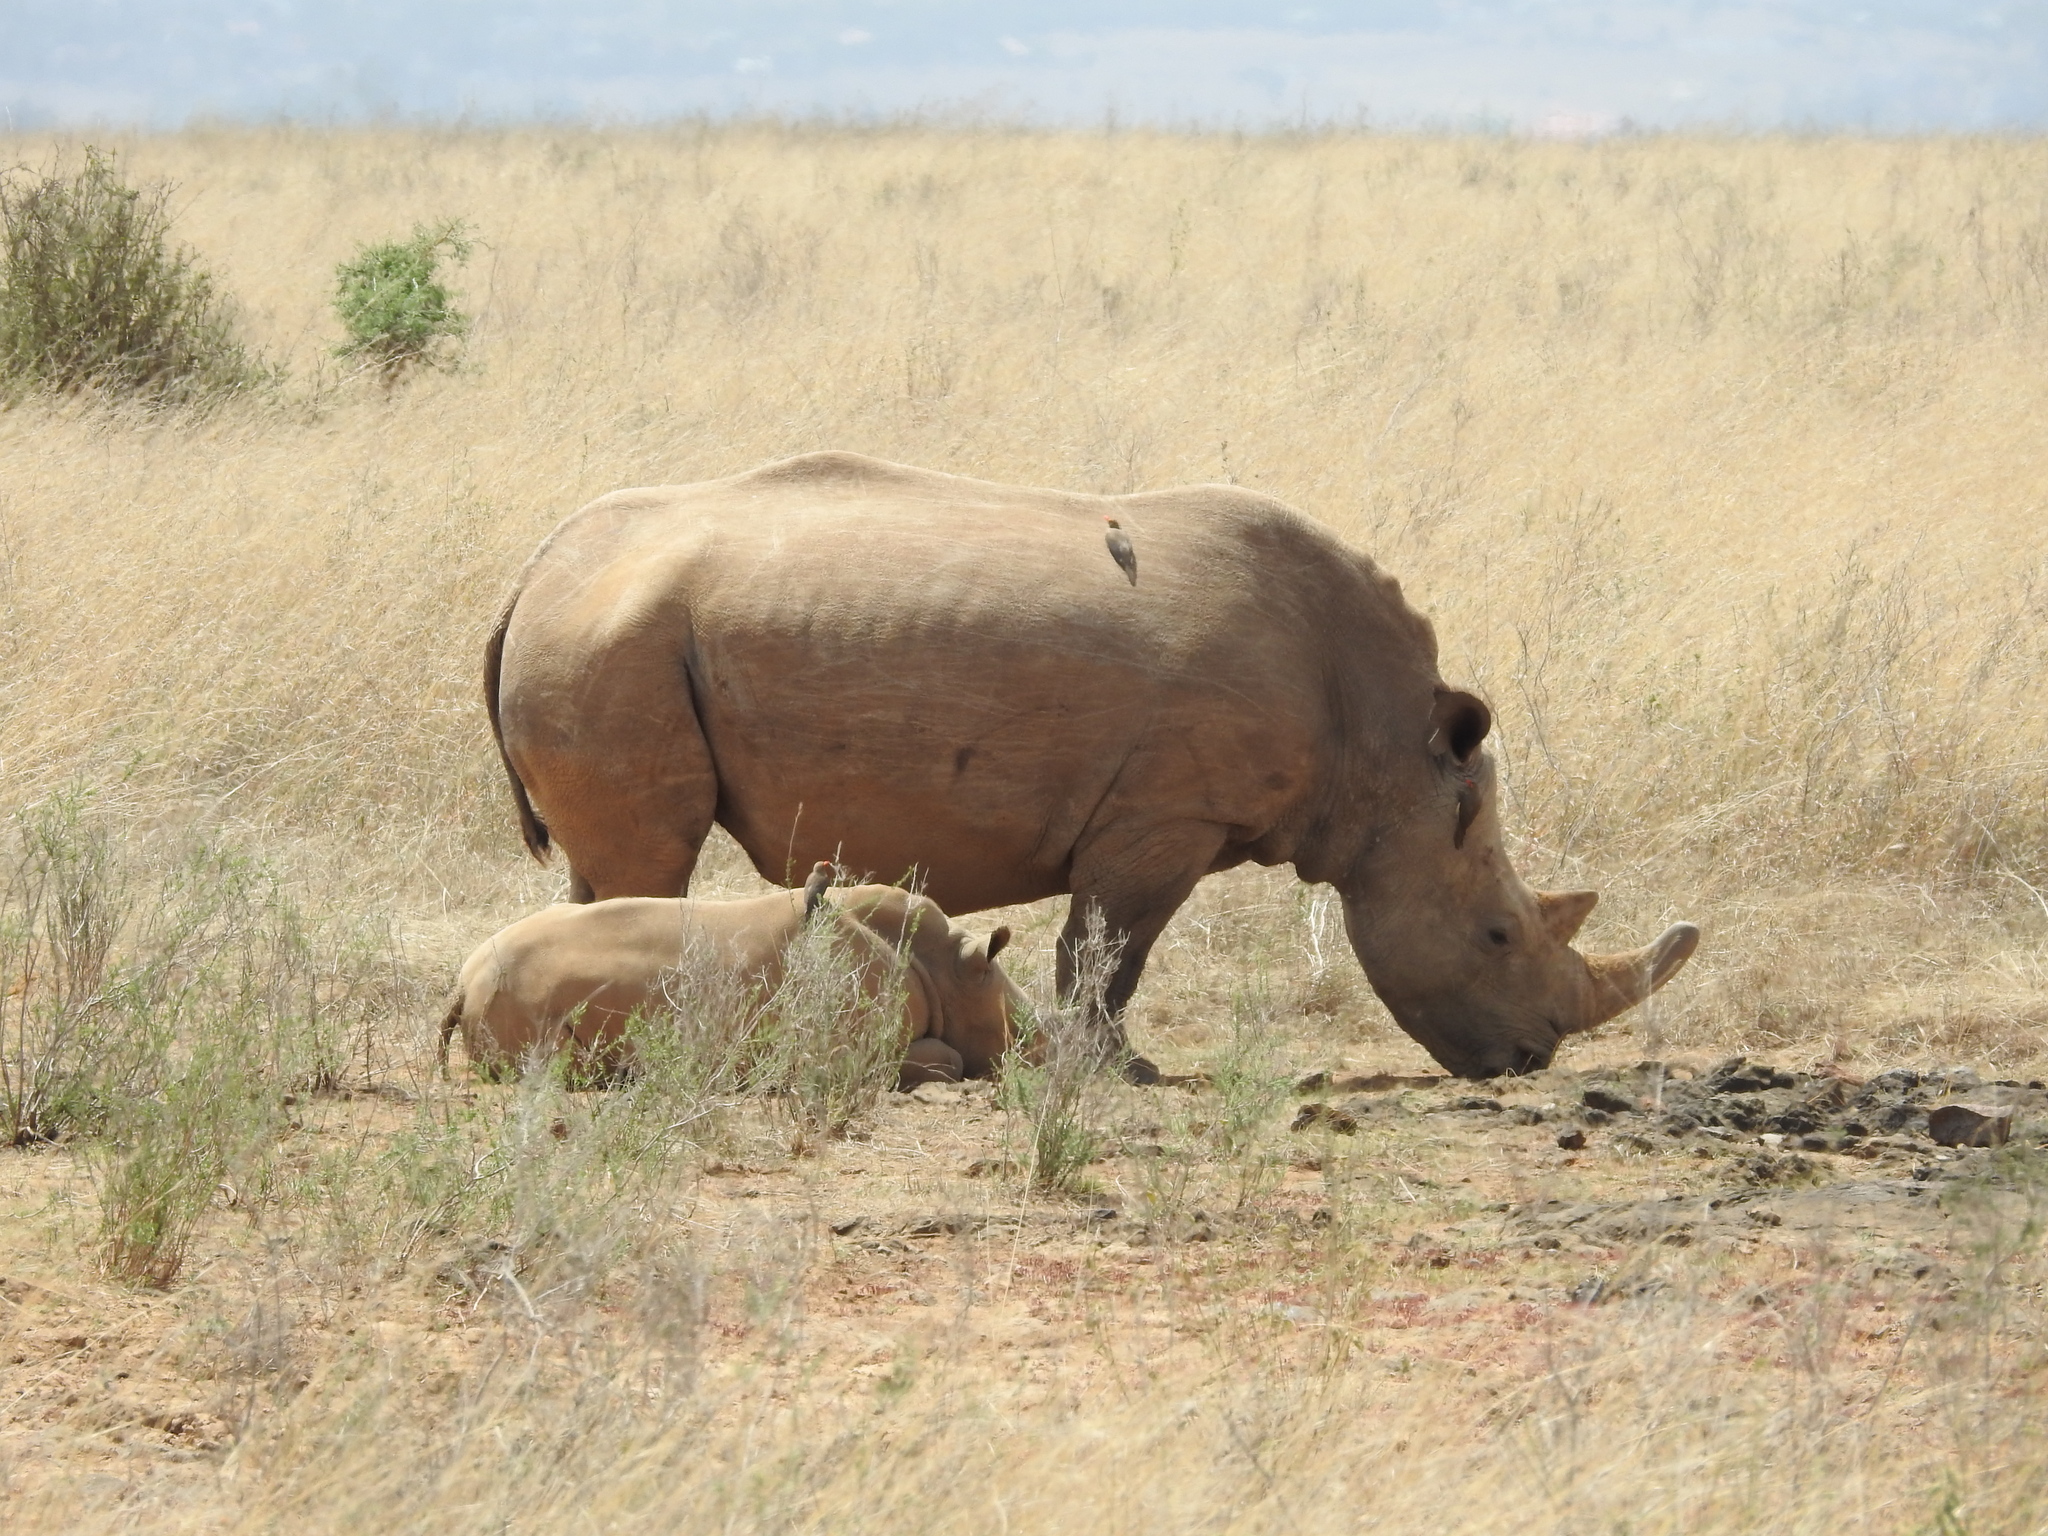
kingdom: Animalia
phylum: Chordata
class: Mammalia
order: Perissodactyla
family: Rhinocerotidae
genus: Ceratotherium
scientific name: Ceratotherium simum
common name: White rhinoceros
